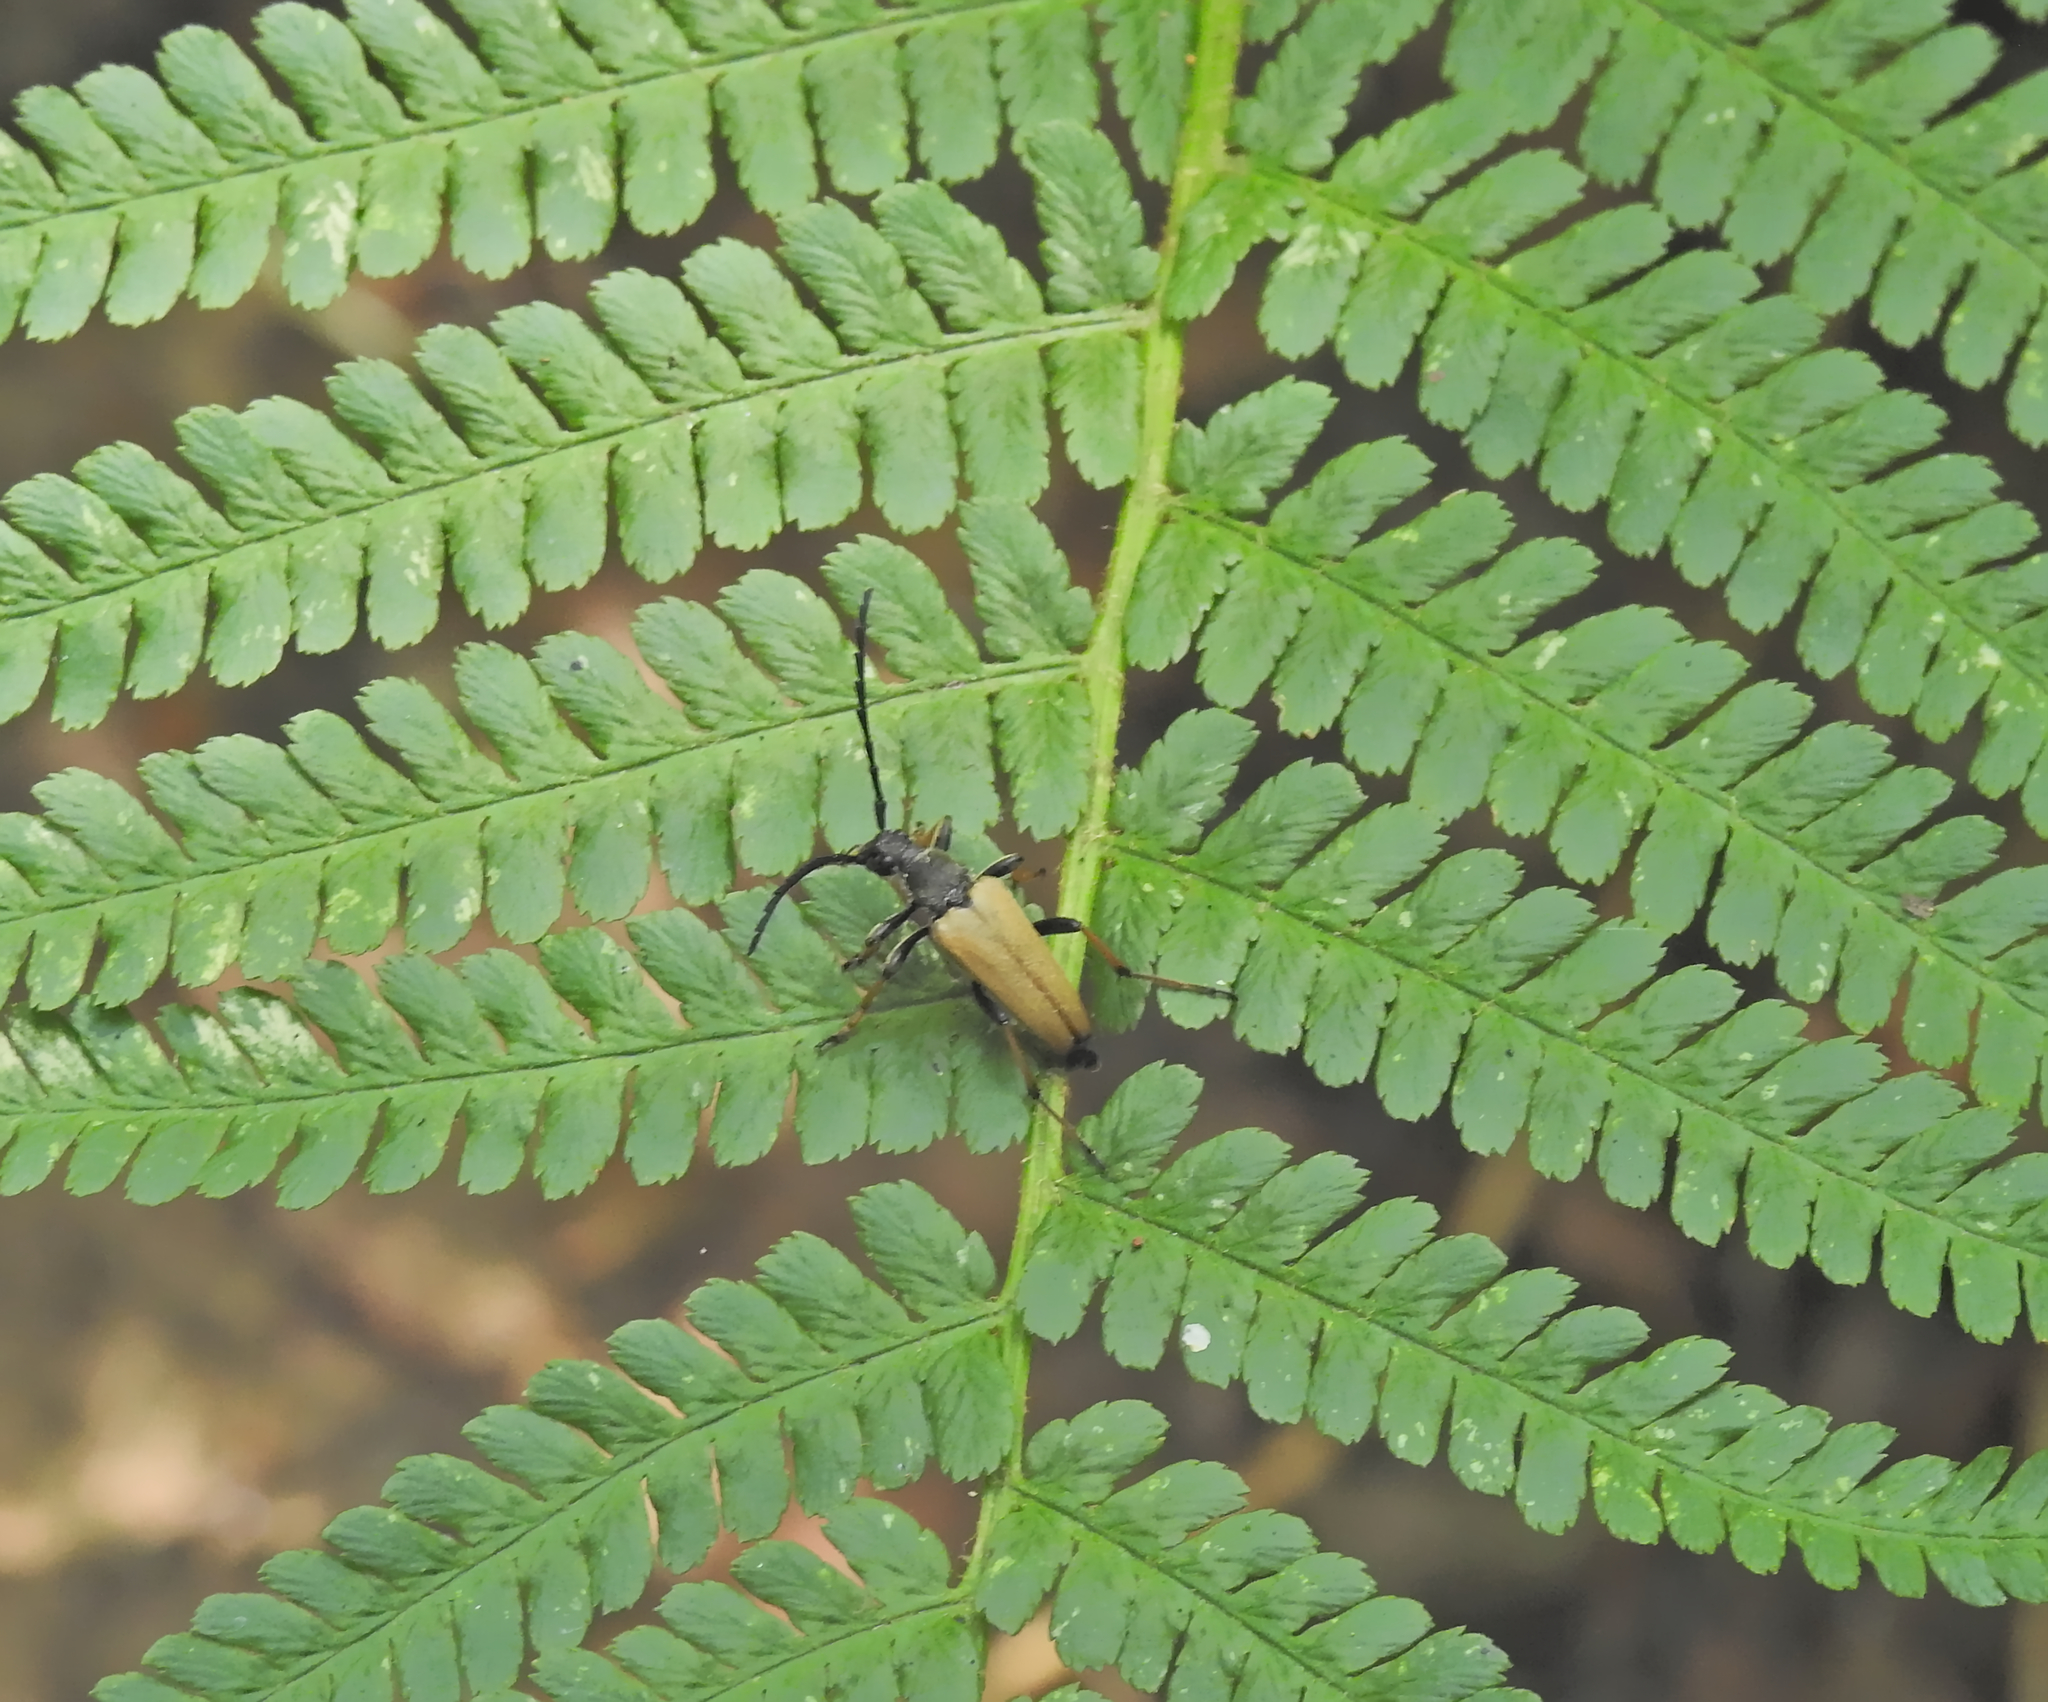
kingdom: Animalia
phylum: Arthropoda
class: Insecta
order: Coleoptera
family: Cerambycidae
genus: Stictoleptura
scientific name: Stictoleptura rubra
